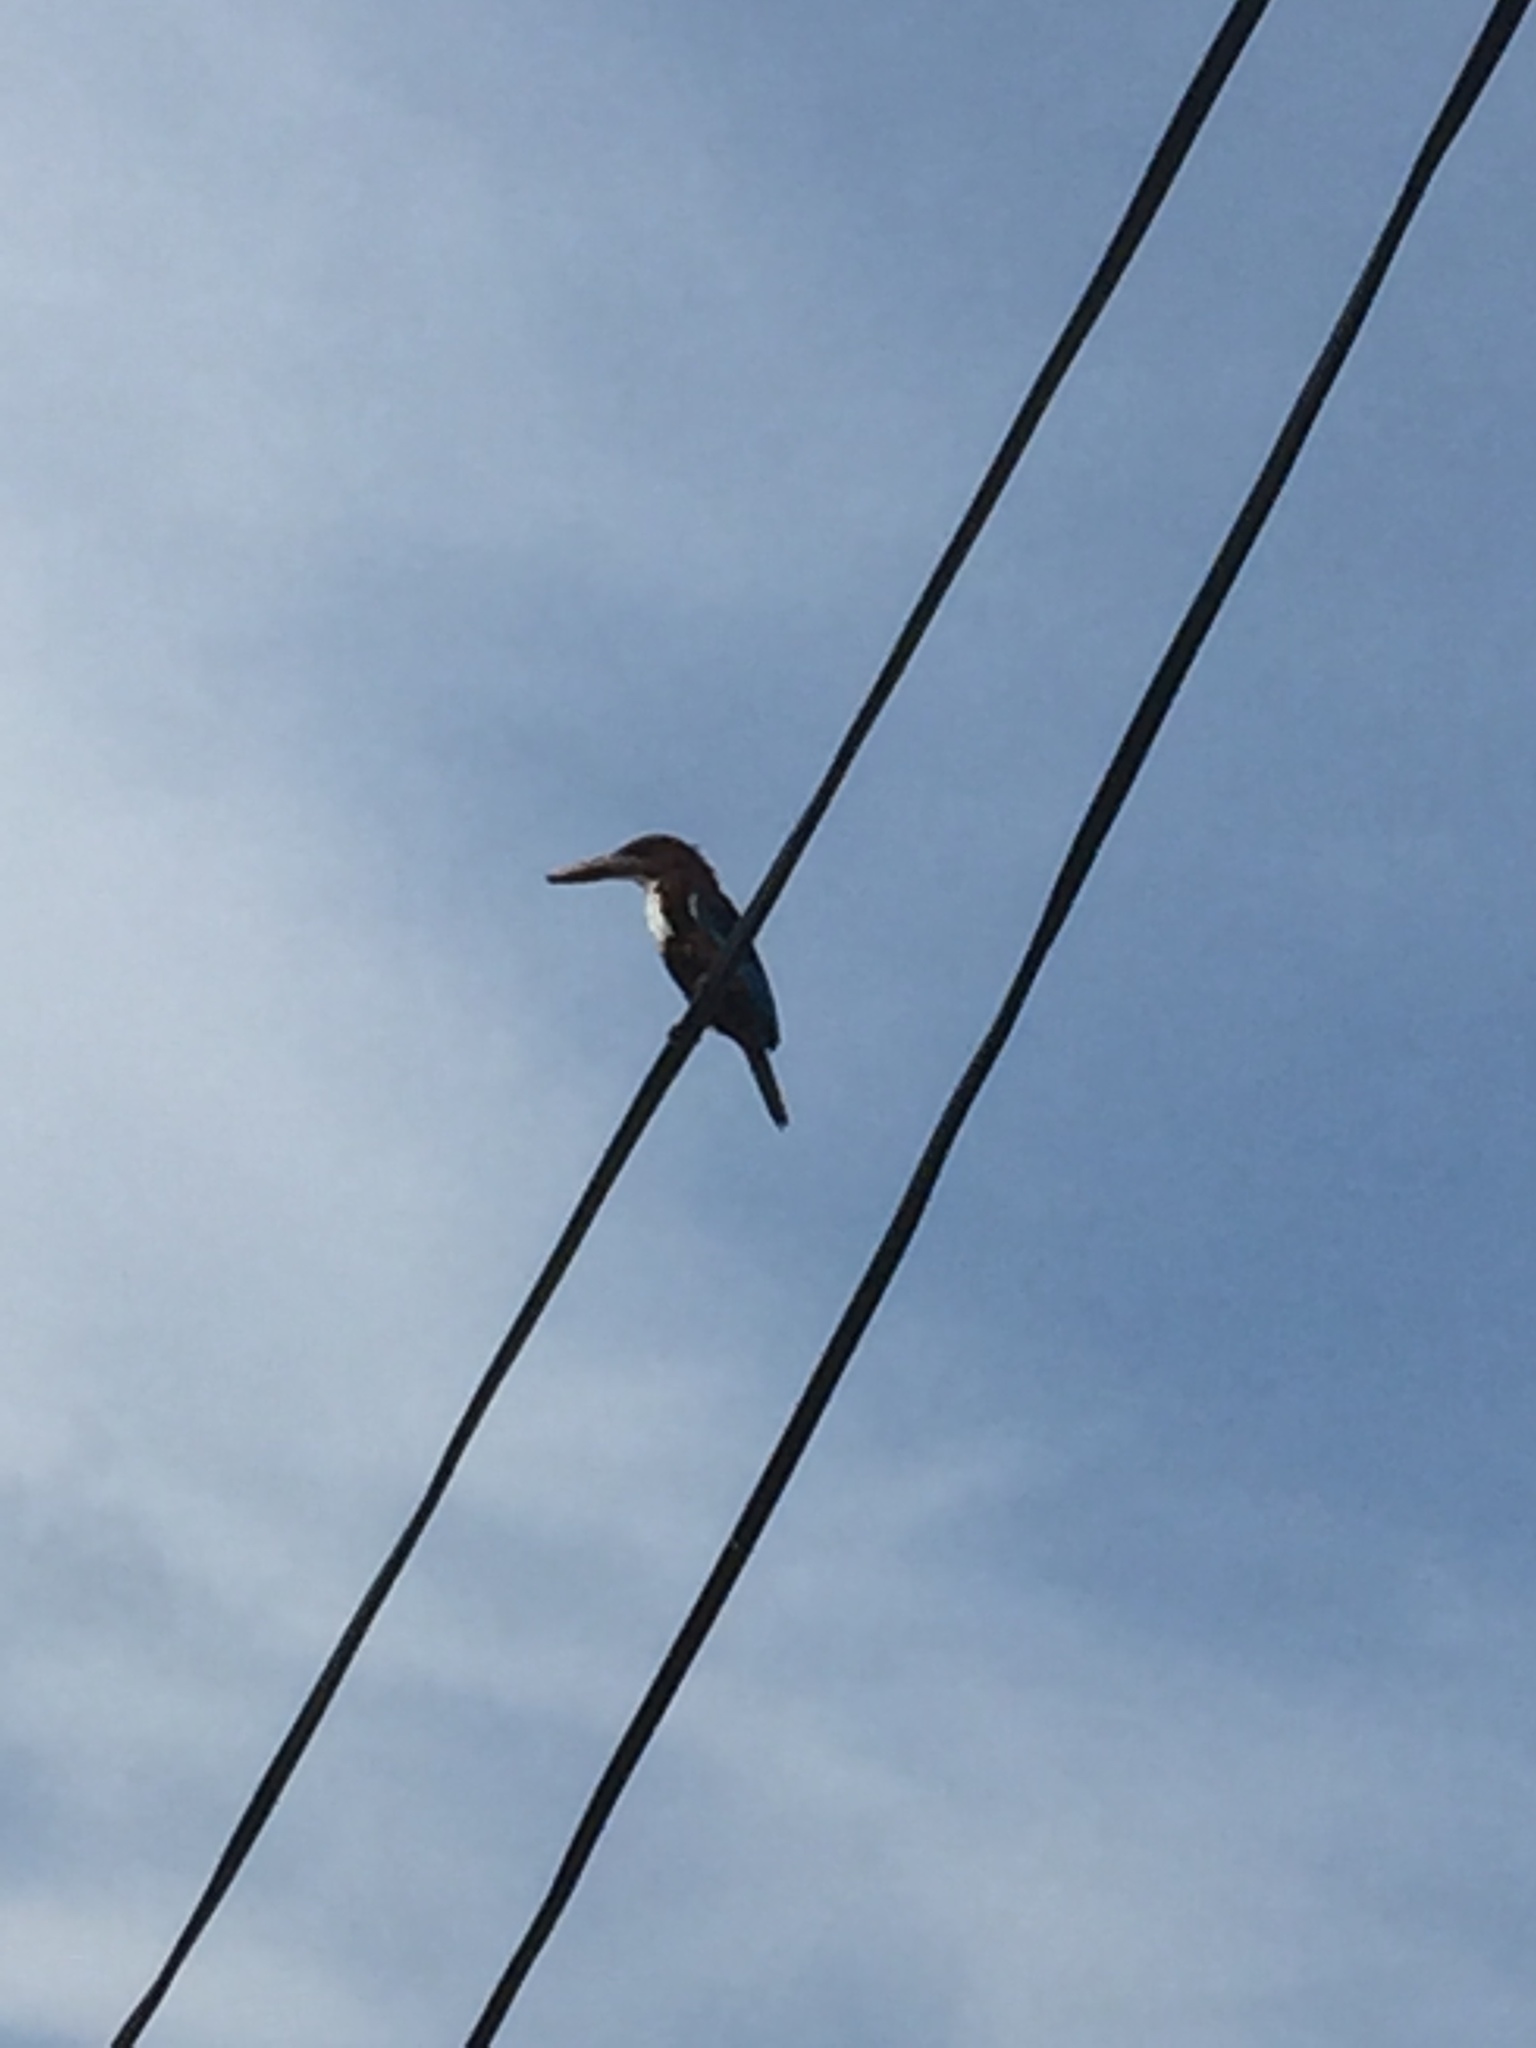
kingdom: Animalia
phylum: Chordata
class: Aves
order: Coraciiformes
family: Alcedinidae
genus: Halcyon
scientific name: Halcyon smyrnensis
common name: White-throated kingfisher
